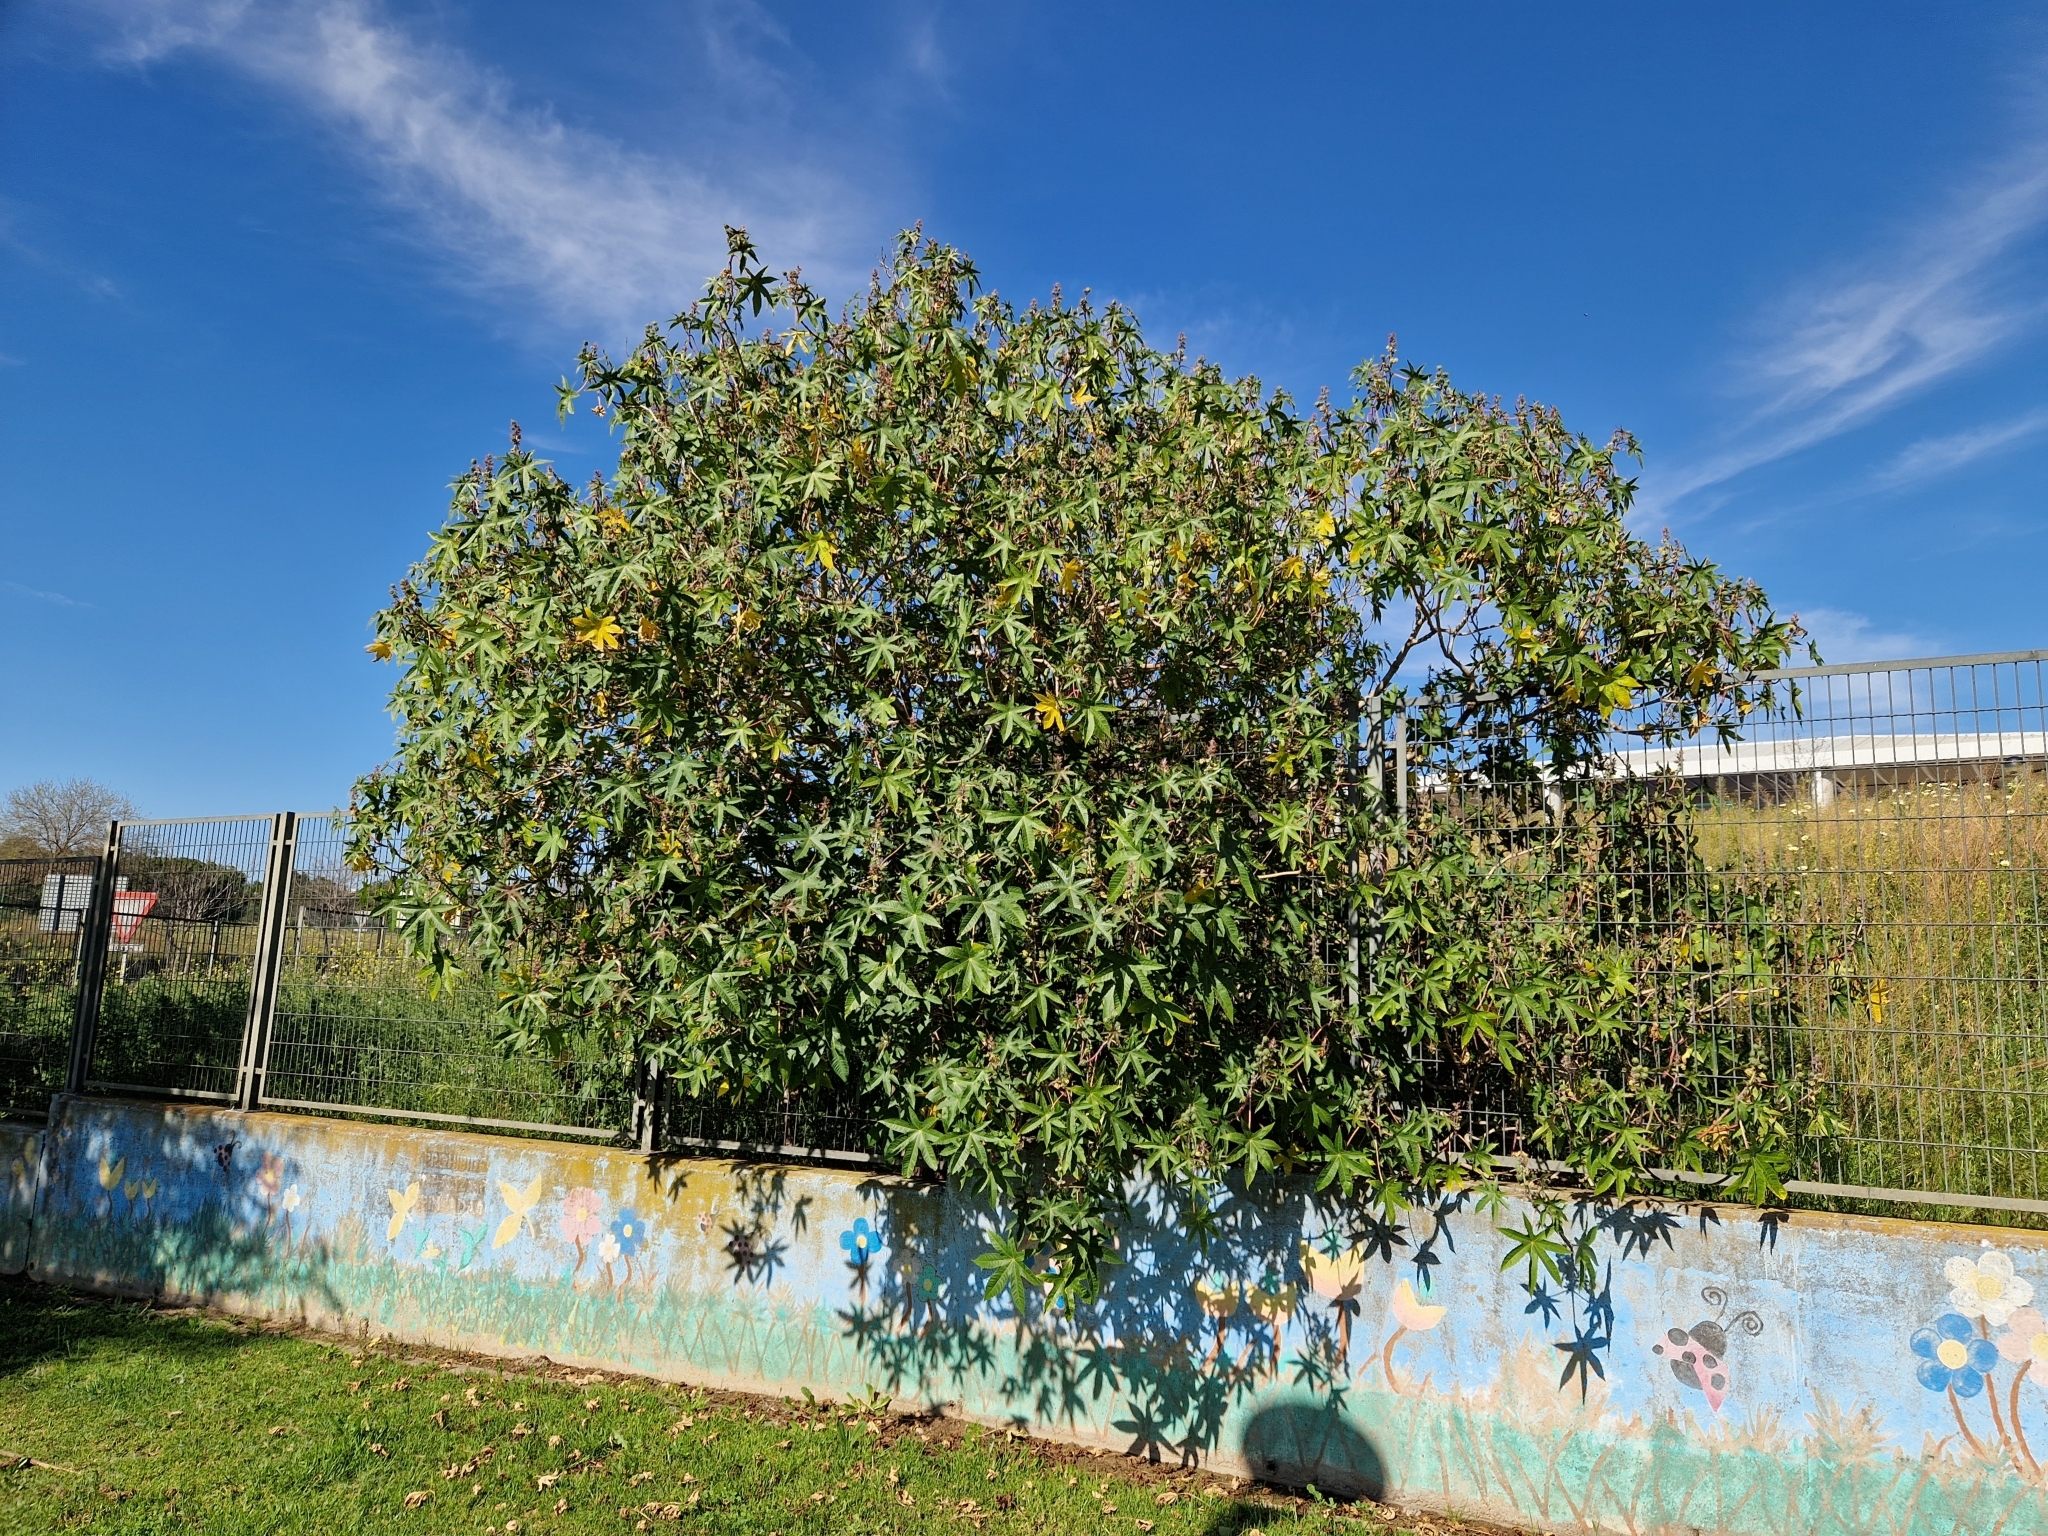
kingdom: Plantae
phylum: Tracheophyta
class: Magnoliopsida
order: Malpighiales
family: Euphorbiaceae
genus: Ricinus
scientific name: Ricinus communis
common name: Castor-oil-plant
